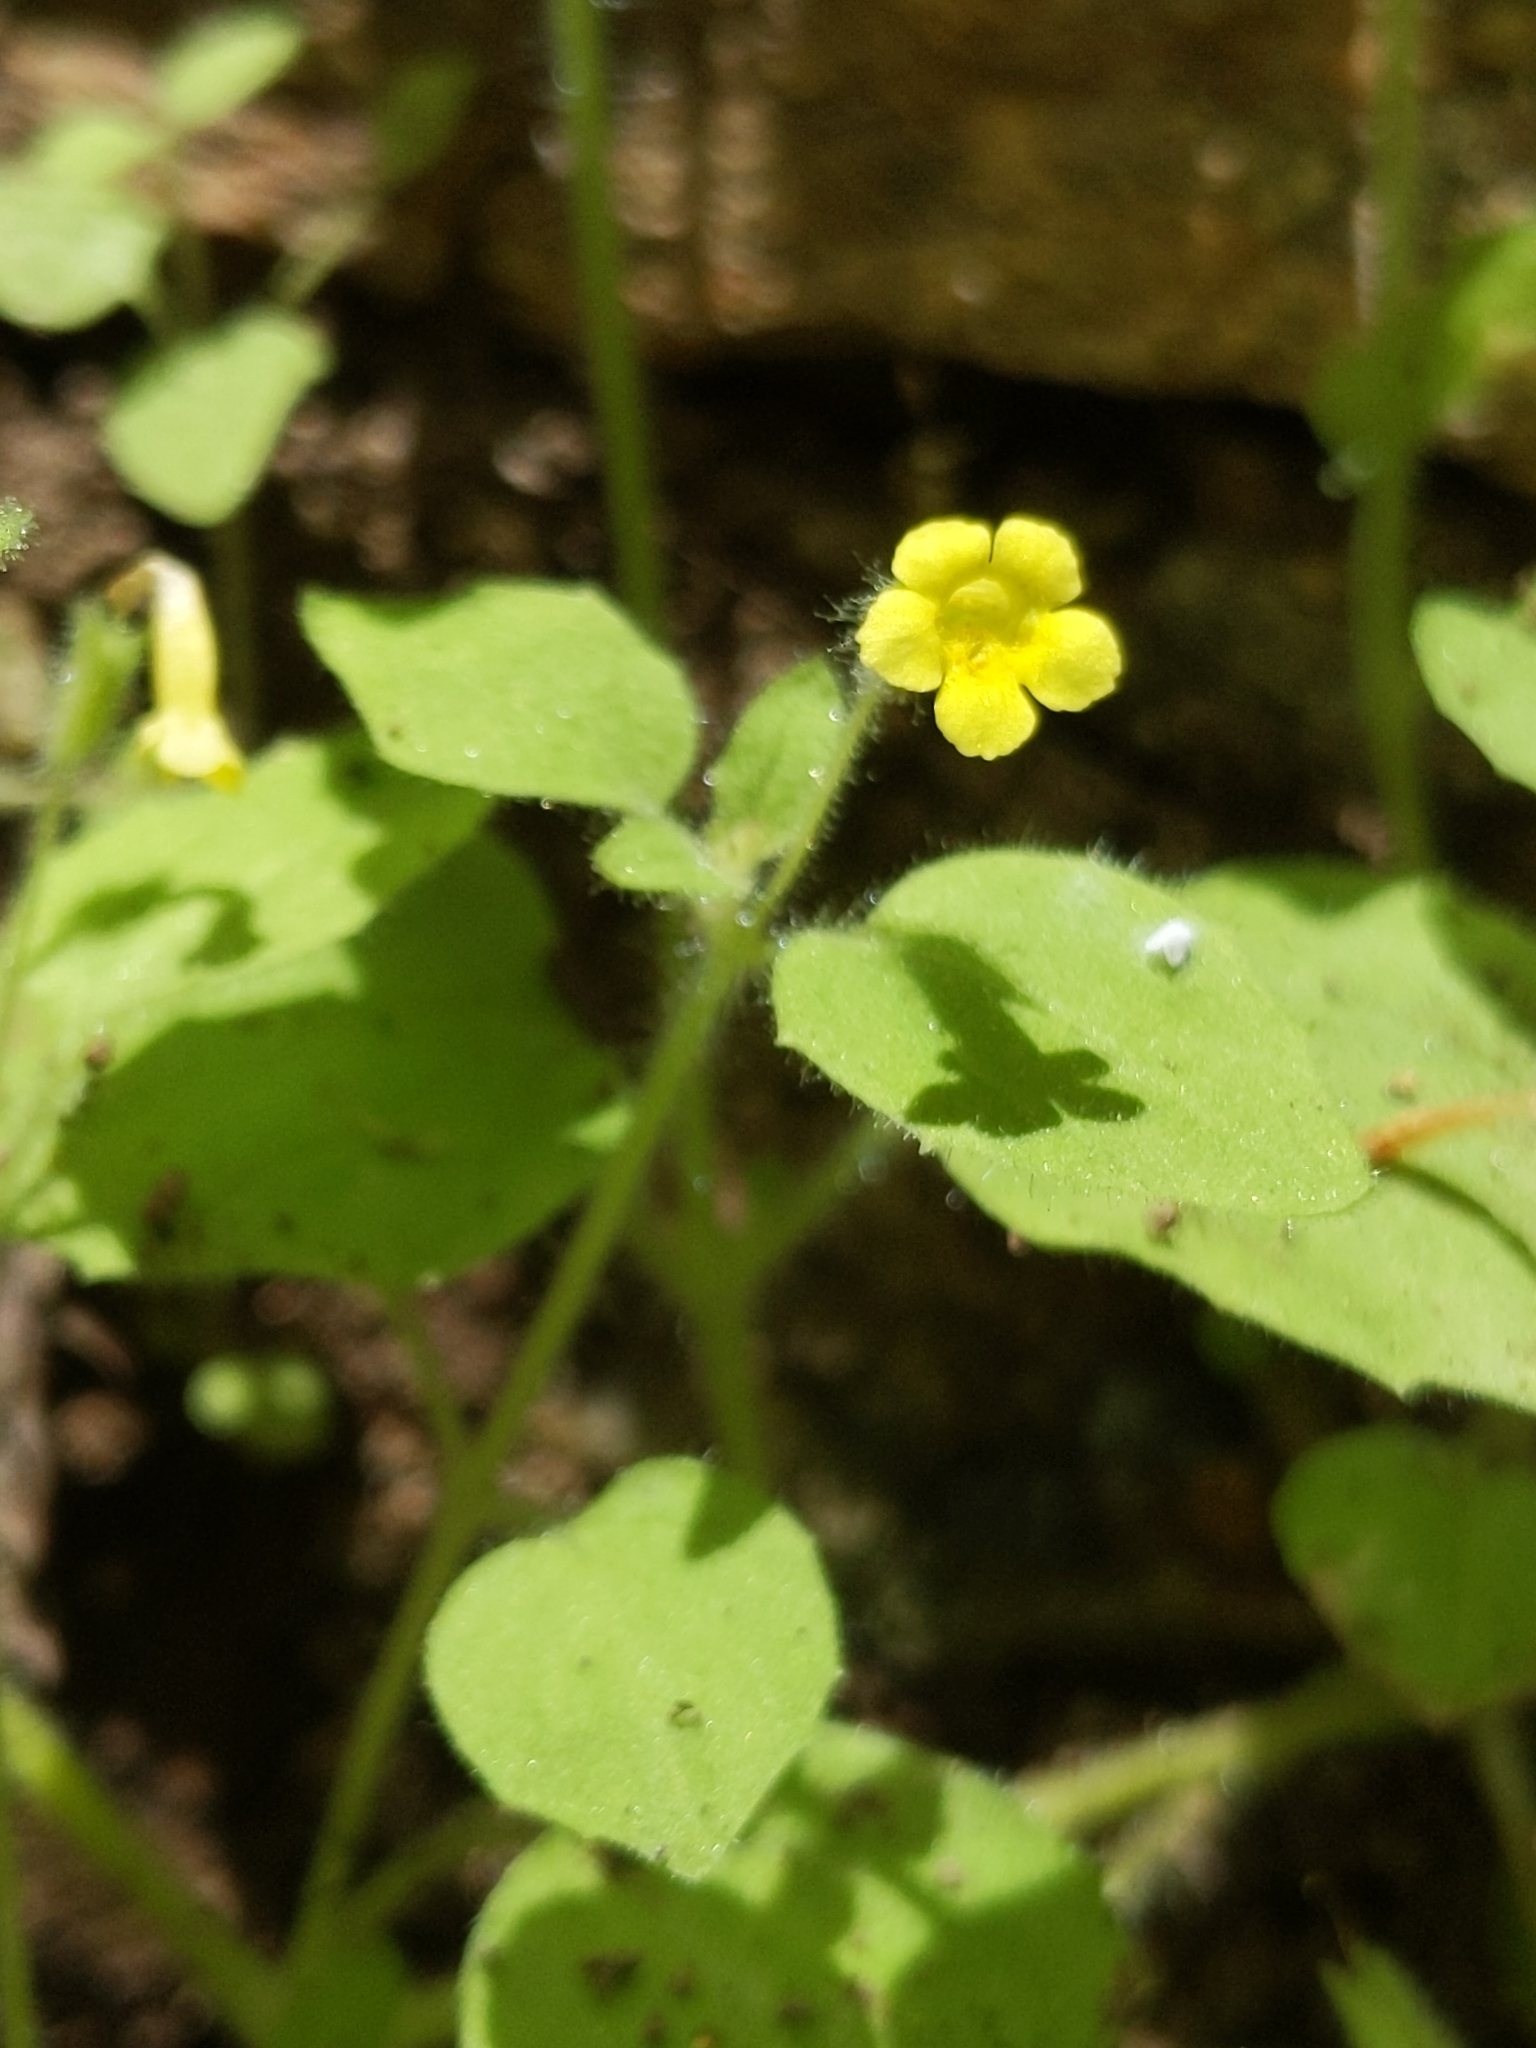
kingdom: Plantae
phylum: Tracheophyta
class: Magnoliopsida
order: Lamiales
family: Phrymaceae
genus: Erythranthe
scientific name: Erythranthe floribunda
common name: Floriferous monkeyflower
